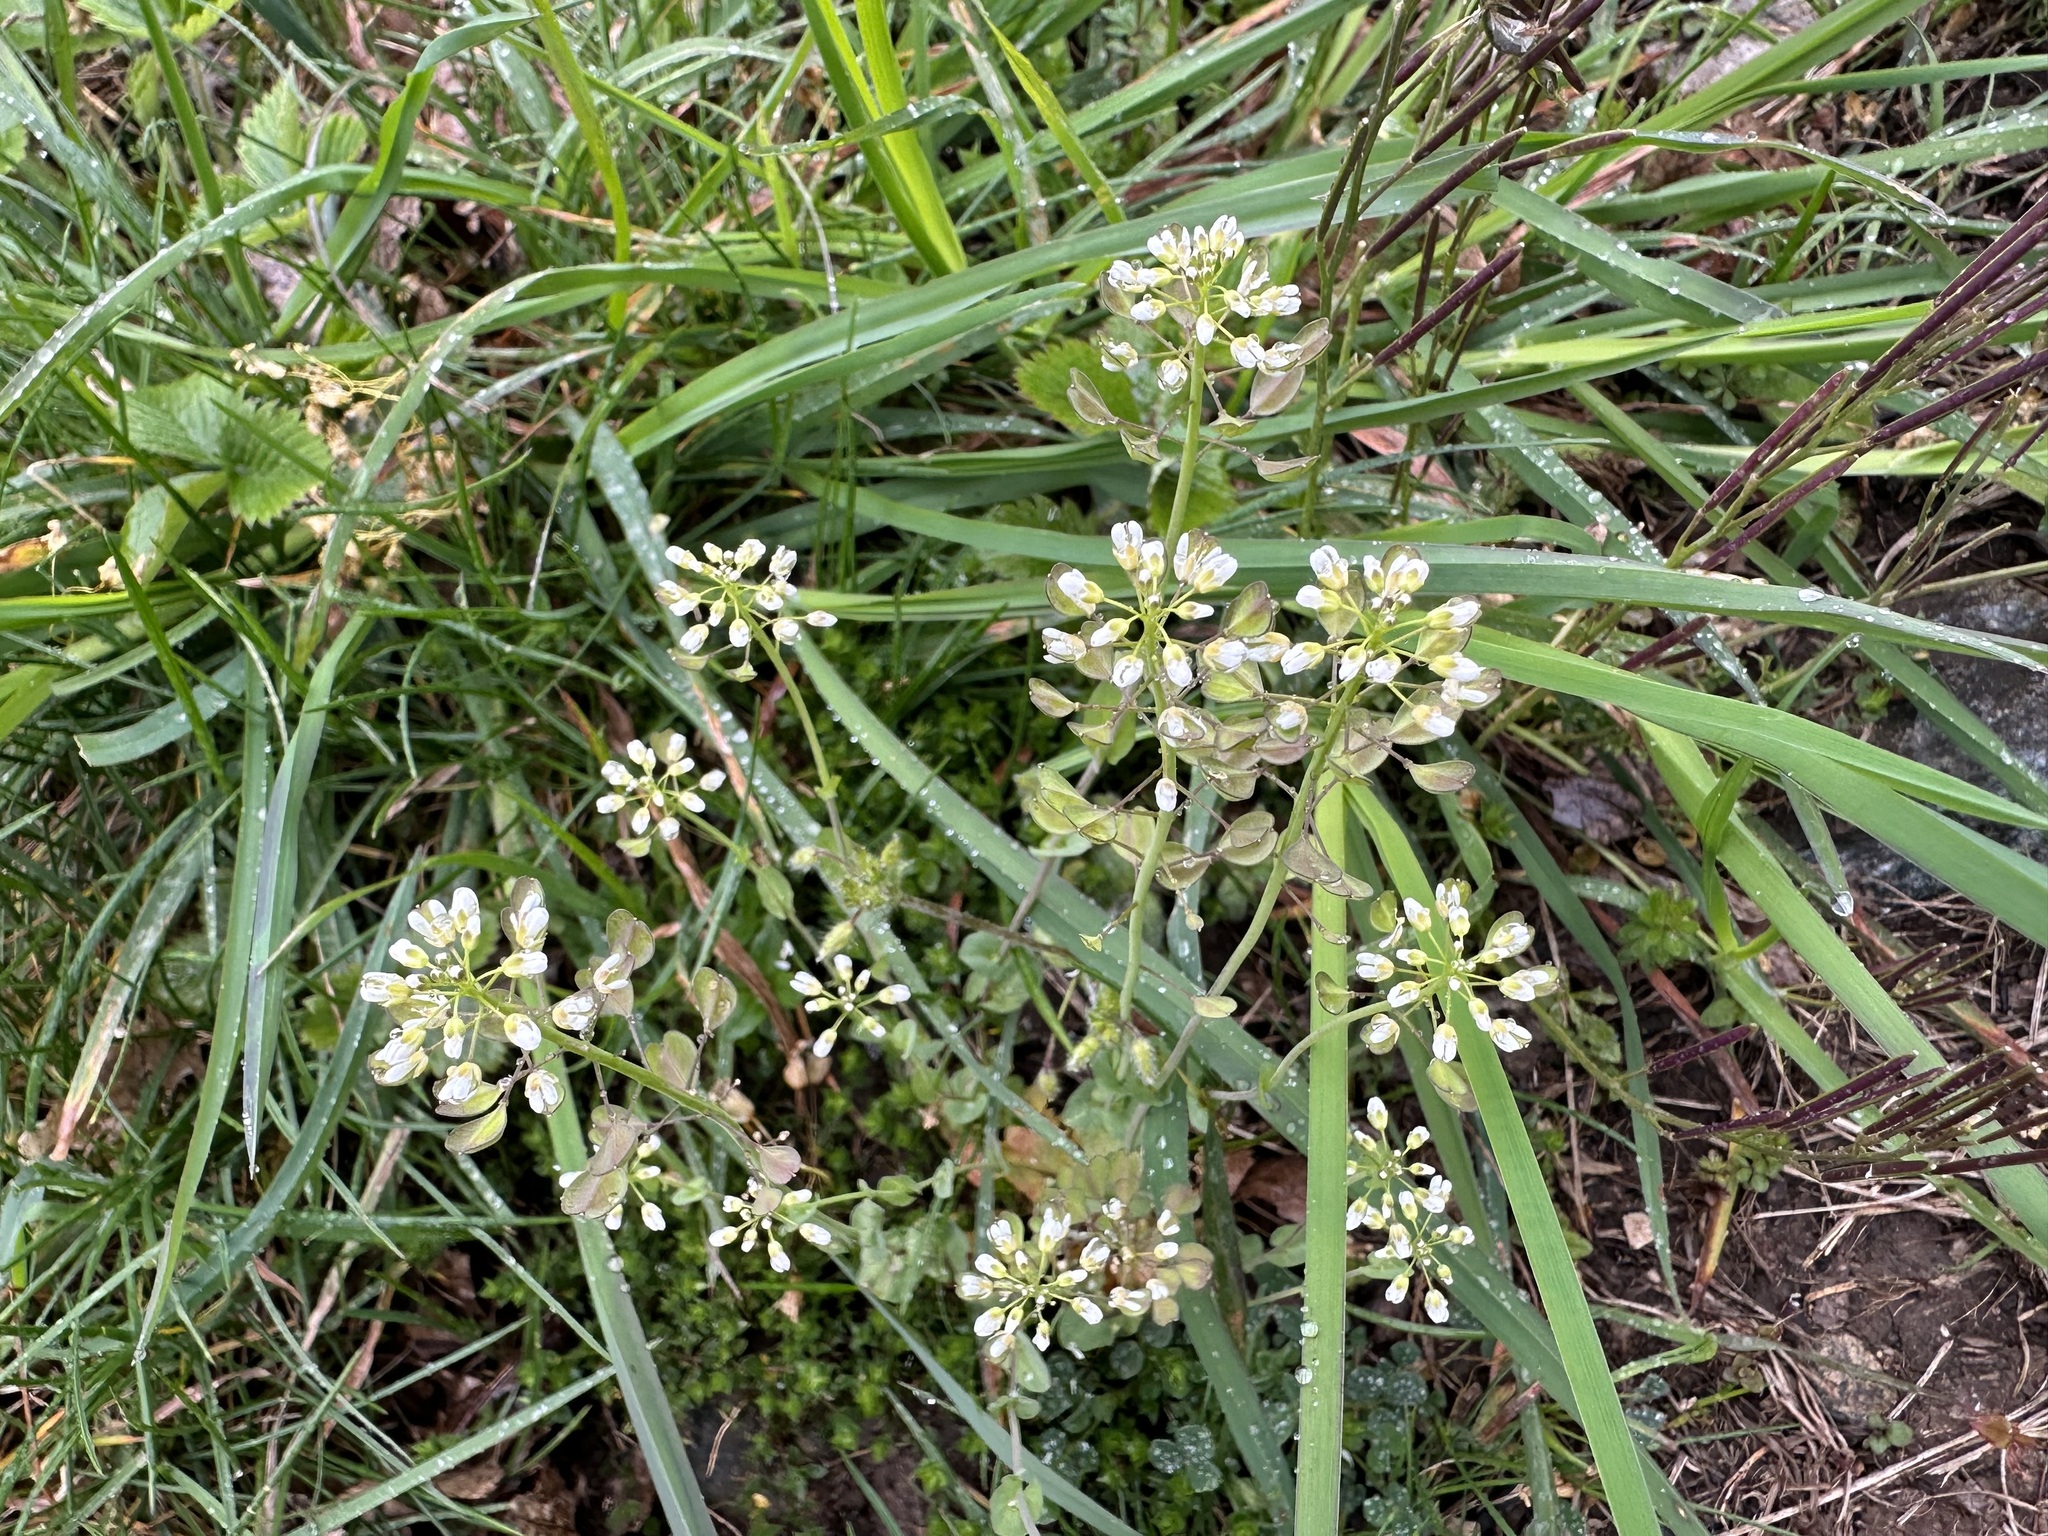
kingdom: Plantae
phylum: Tracheophyta
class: Magnoliopsida
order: Brassicales
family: Brassicaceae
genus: Noccaea
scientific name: Noccaea perfoliata
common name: Perfoliate pennycress
